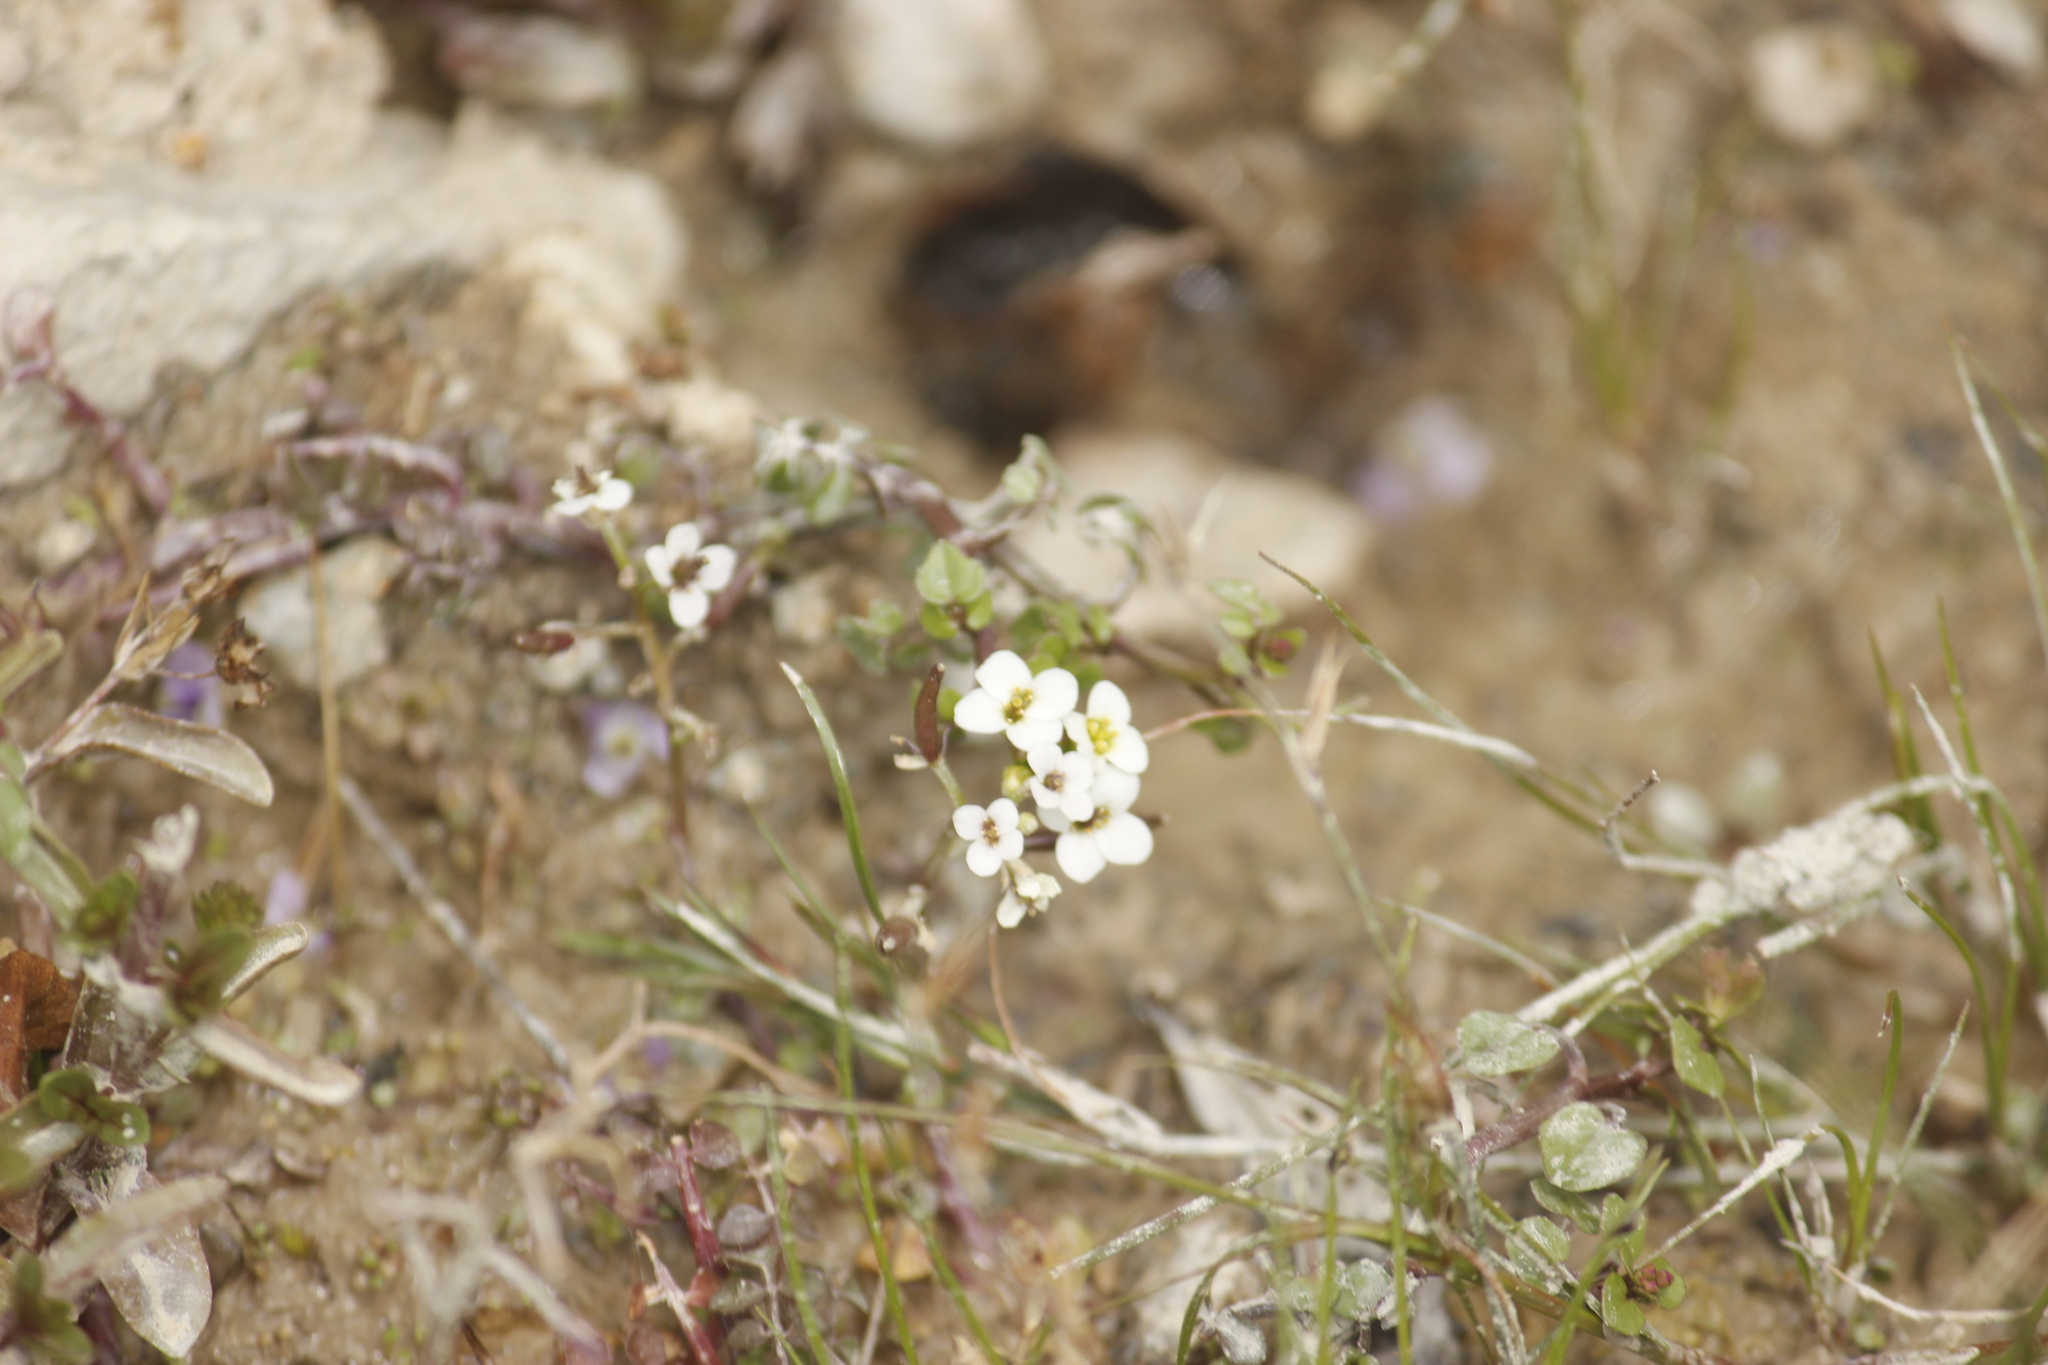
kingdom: Plantae
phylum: Tracheophyta
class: Magnoliopsida
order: Brassicales
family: Brassicaceae
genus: Nasturtium
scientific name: Nasturtium officinale
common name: Watercress
